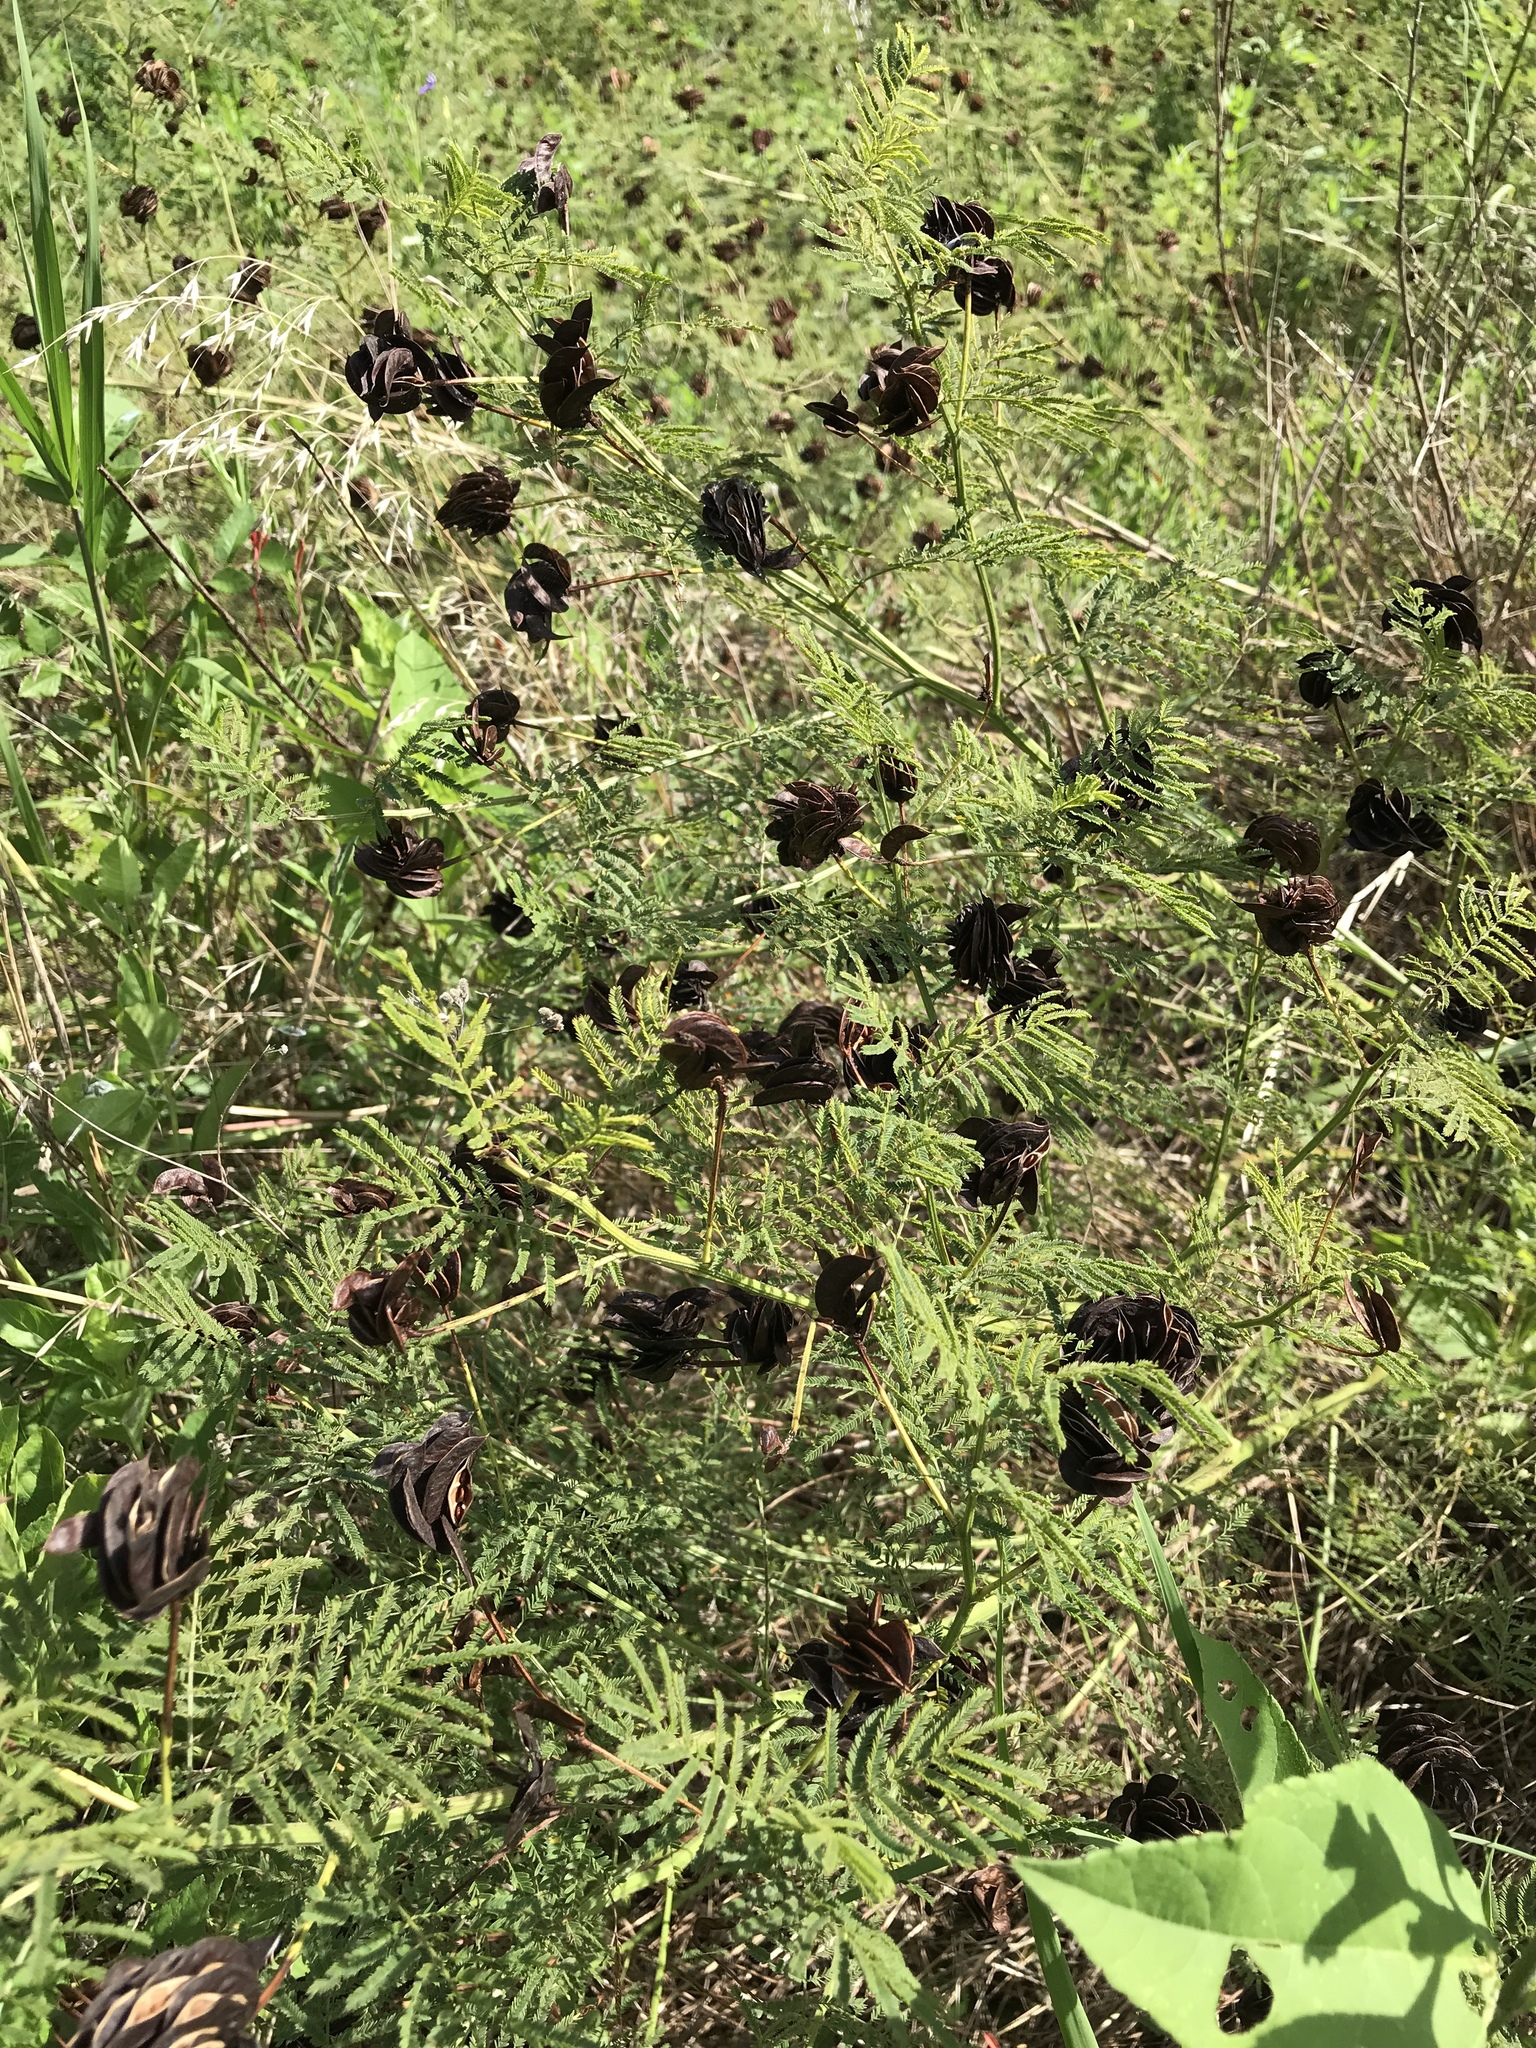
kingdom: Plantae
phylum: Tracheophyta
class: Magnoliopsida
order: Fabales
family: Fabaceae
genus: Desmanthus
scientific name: Desmanthus illinoensis
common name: Illinois bundle-flower
